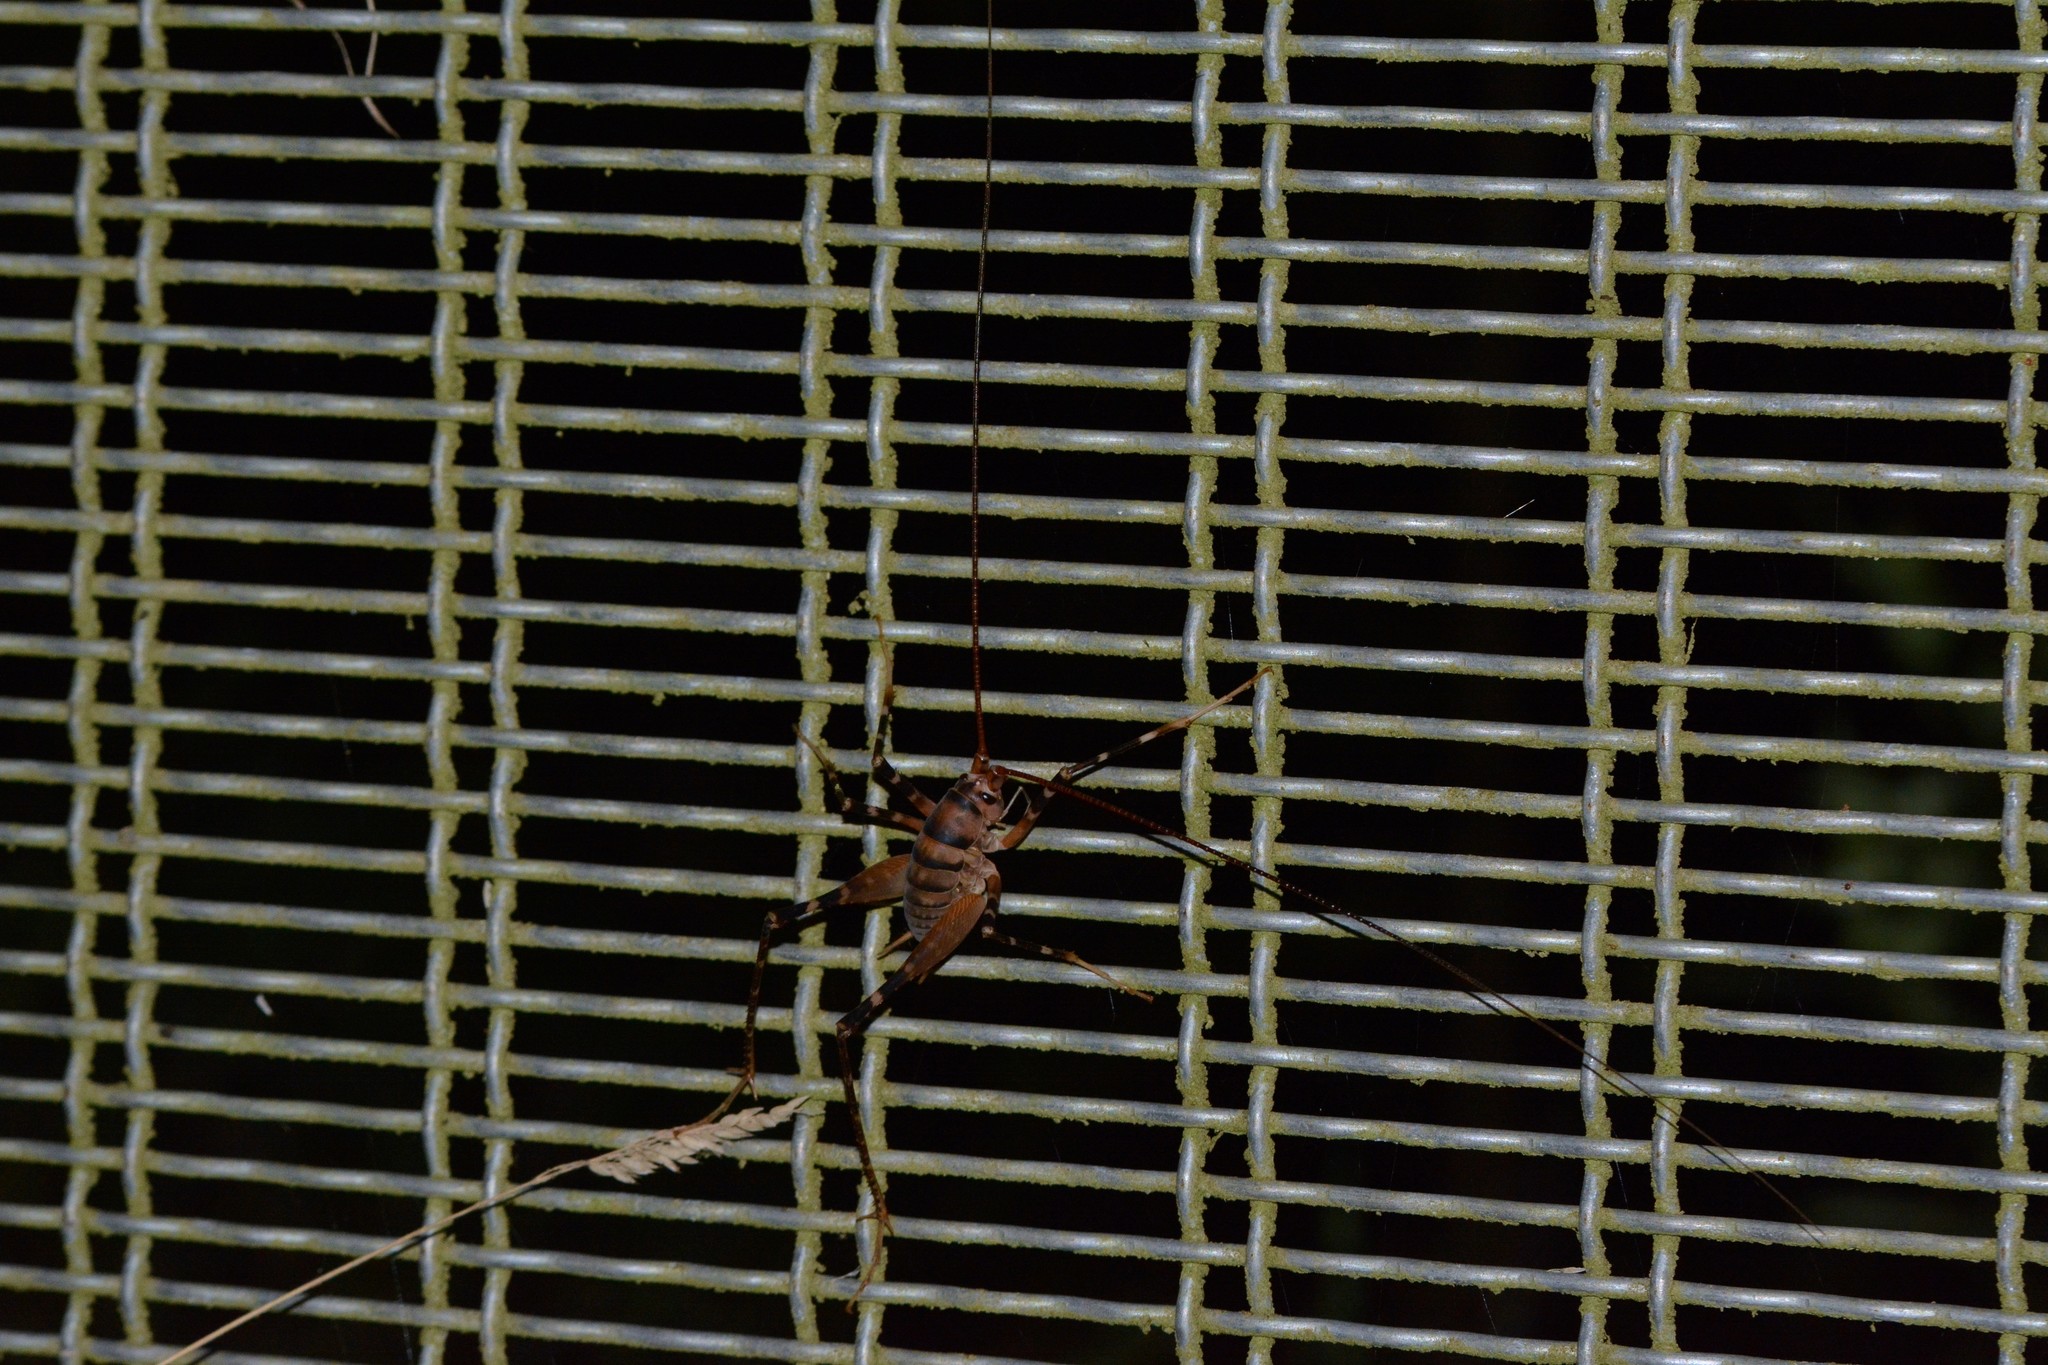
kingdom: Animalia
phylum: Arthropoda
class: Insecta
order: Orthoptera
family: Rhaphidophoridae
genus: Pachyrhamma
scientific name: Pachyrhamma edwardsii
